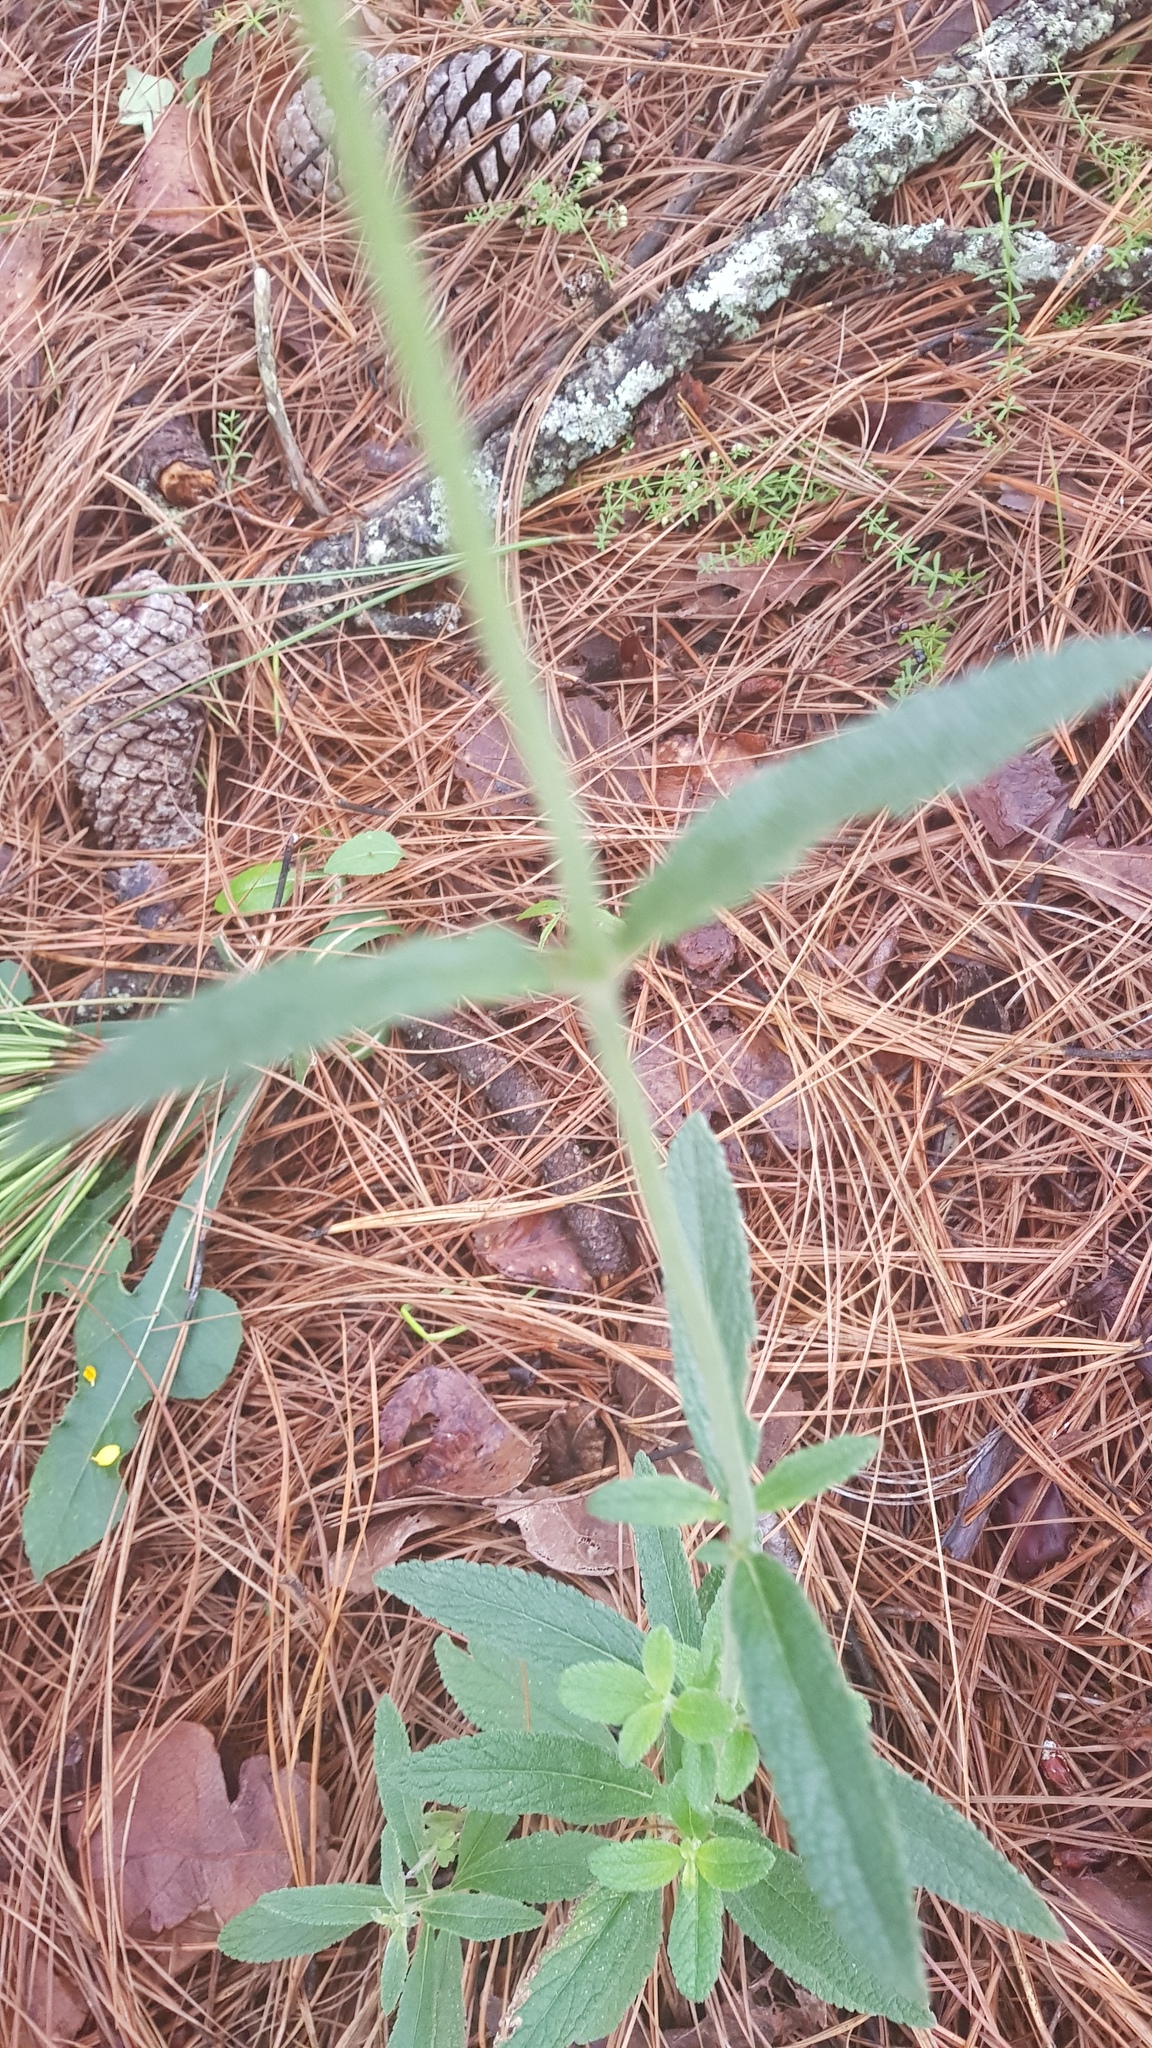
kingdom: Plantae
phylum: Tracheophyta
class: Magnoliopsida
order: Lamiales
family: Lamiaceae
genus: Salvia
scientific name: Salvia lavanduloides
